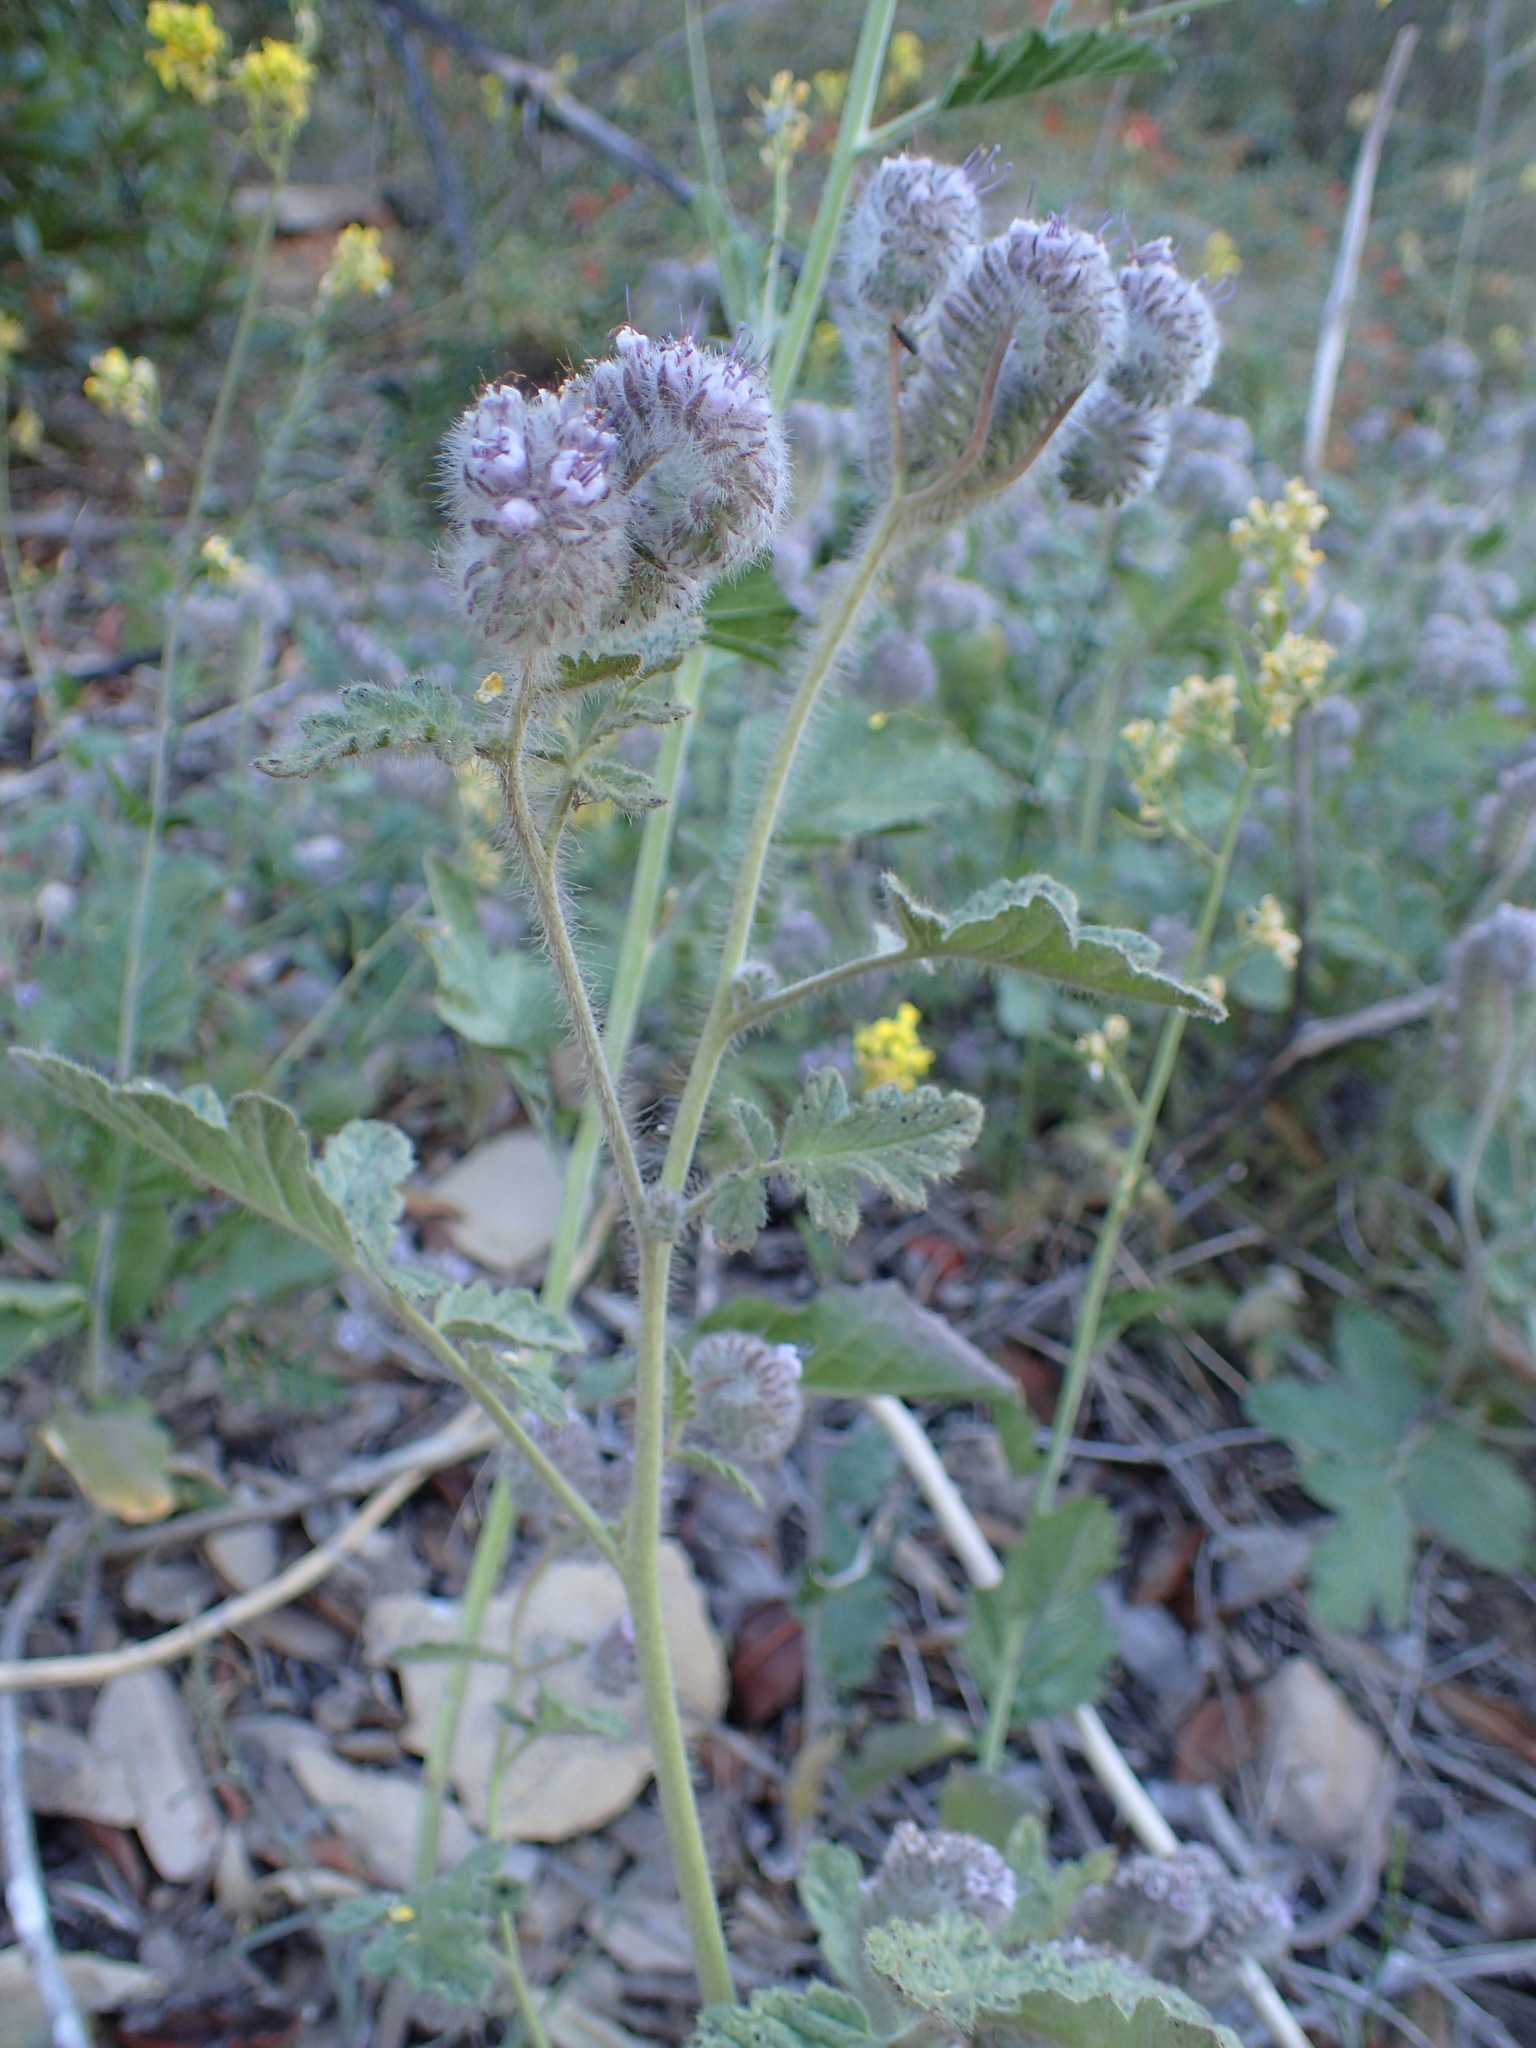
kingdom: Plantae
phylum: Tracheophyta
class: Magnoliopsida
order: Boraginales
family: Hydrophyllaceae
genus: Phacelia
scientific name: Phacelia hubbyi
